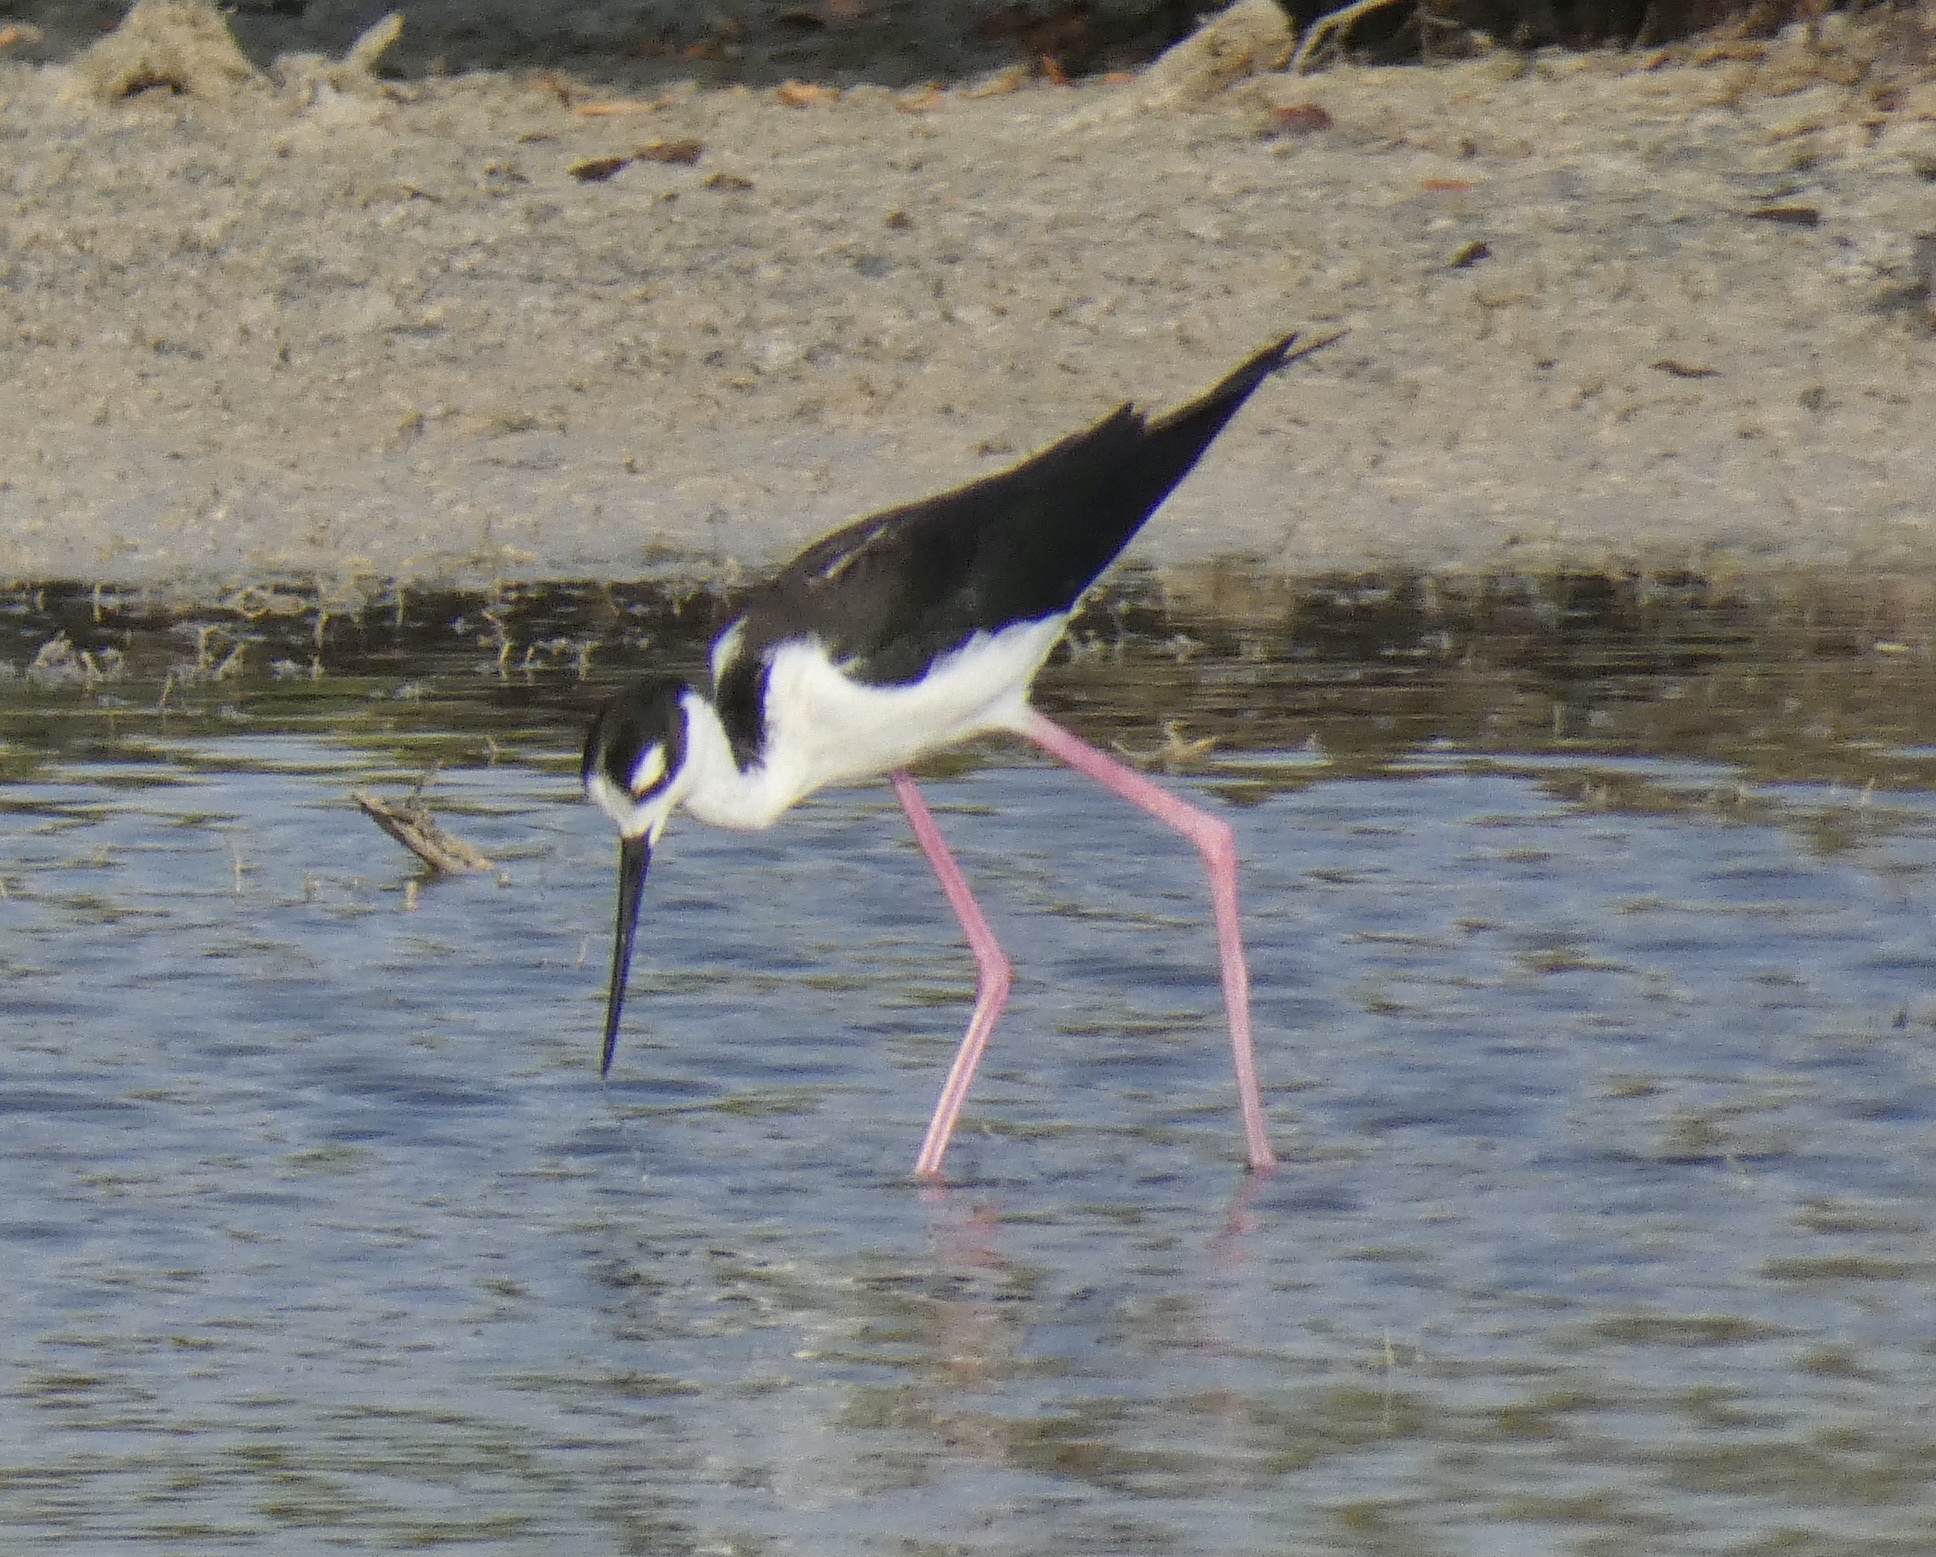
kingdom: Animalia
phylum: Chordata
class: Aves
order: Charadriiformes
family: Recurvirostridae
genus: Himantopus
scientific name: Himantopus mexicanus
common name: Black-necked stilt
